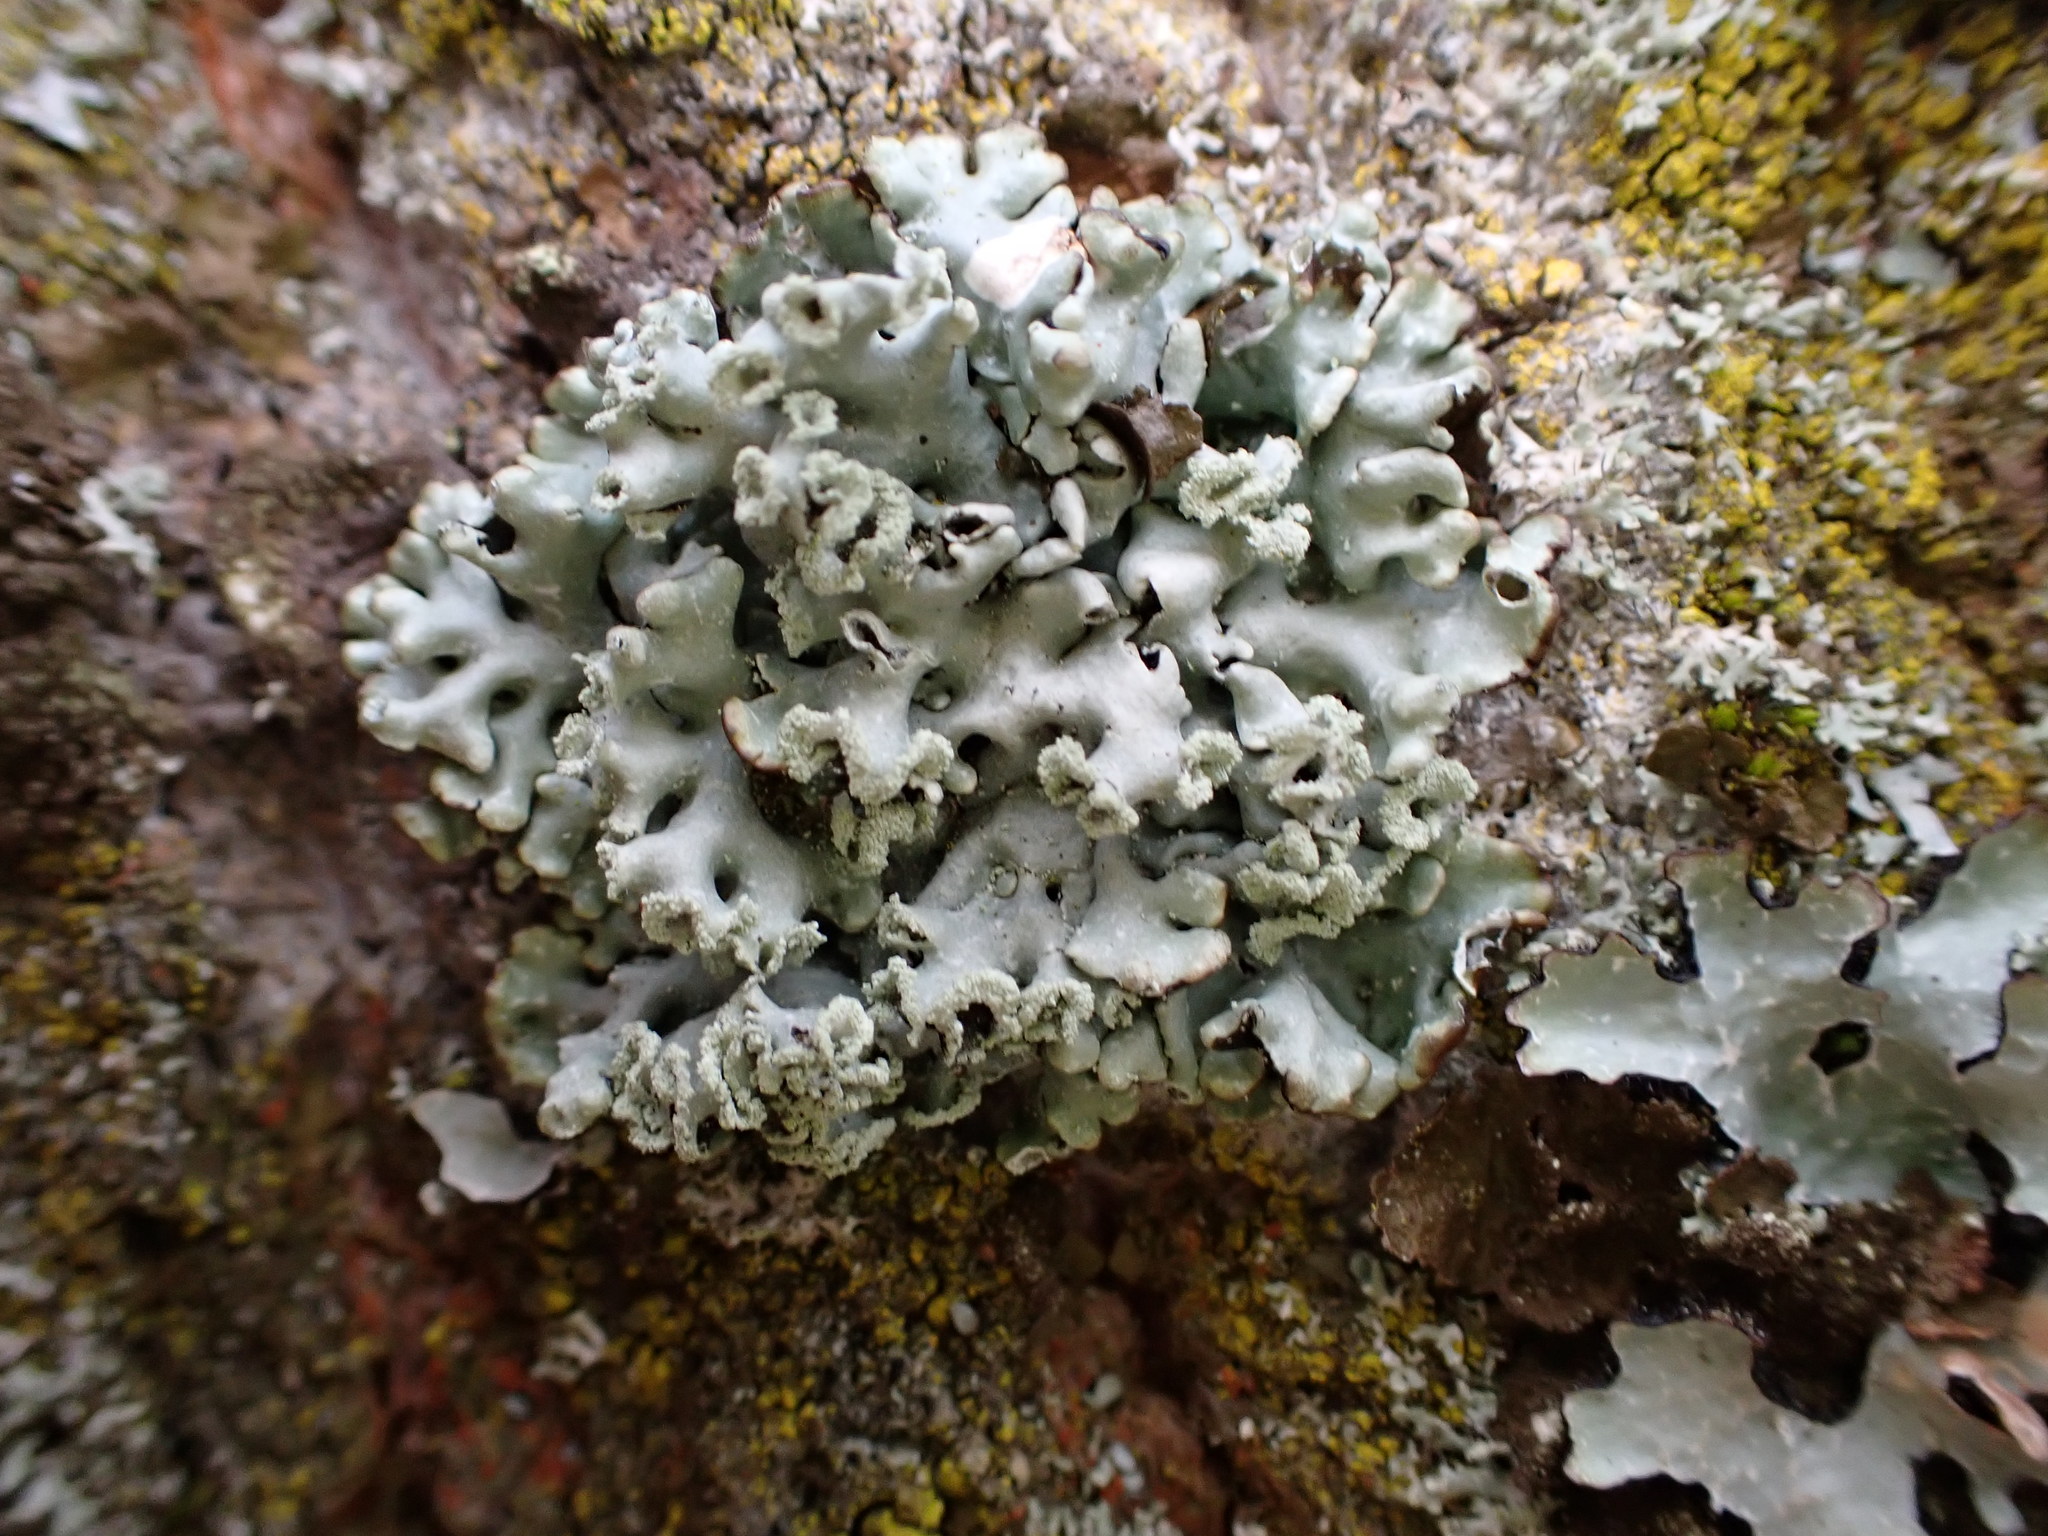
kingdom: Fungi
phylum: Ascomycota
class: Lecanoromycetes
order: Lecanorales
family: Parmeliaceae
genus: Hypogymnia
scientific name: Hypogymnia physodes
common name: Dark crottle
